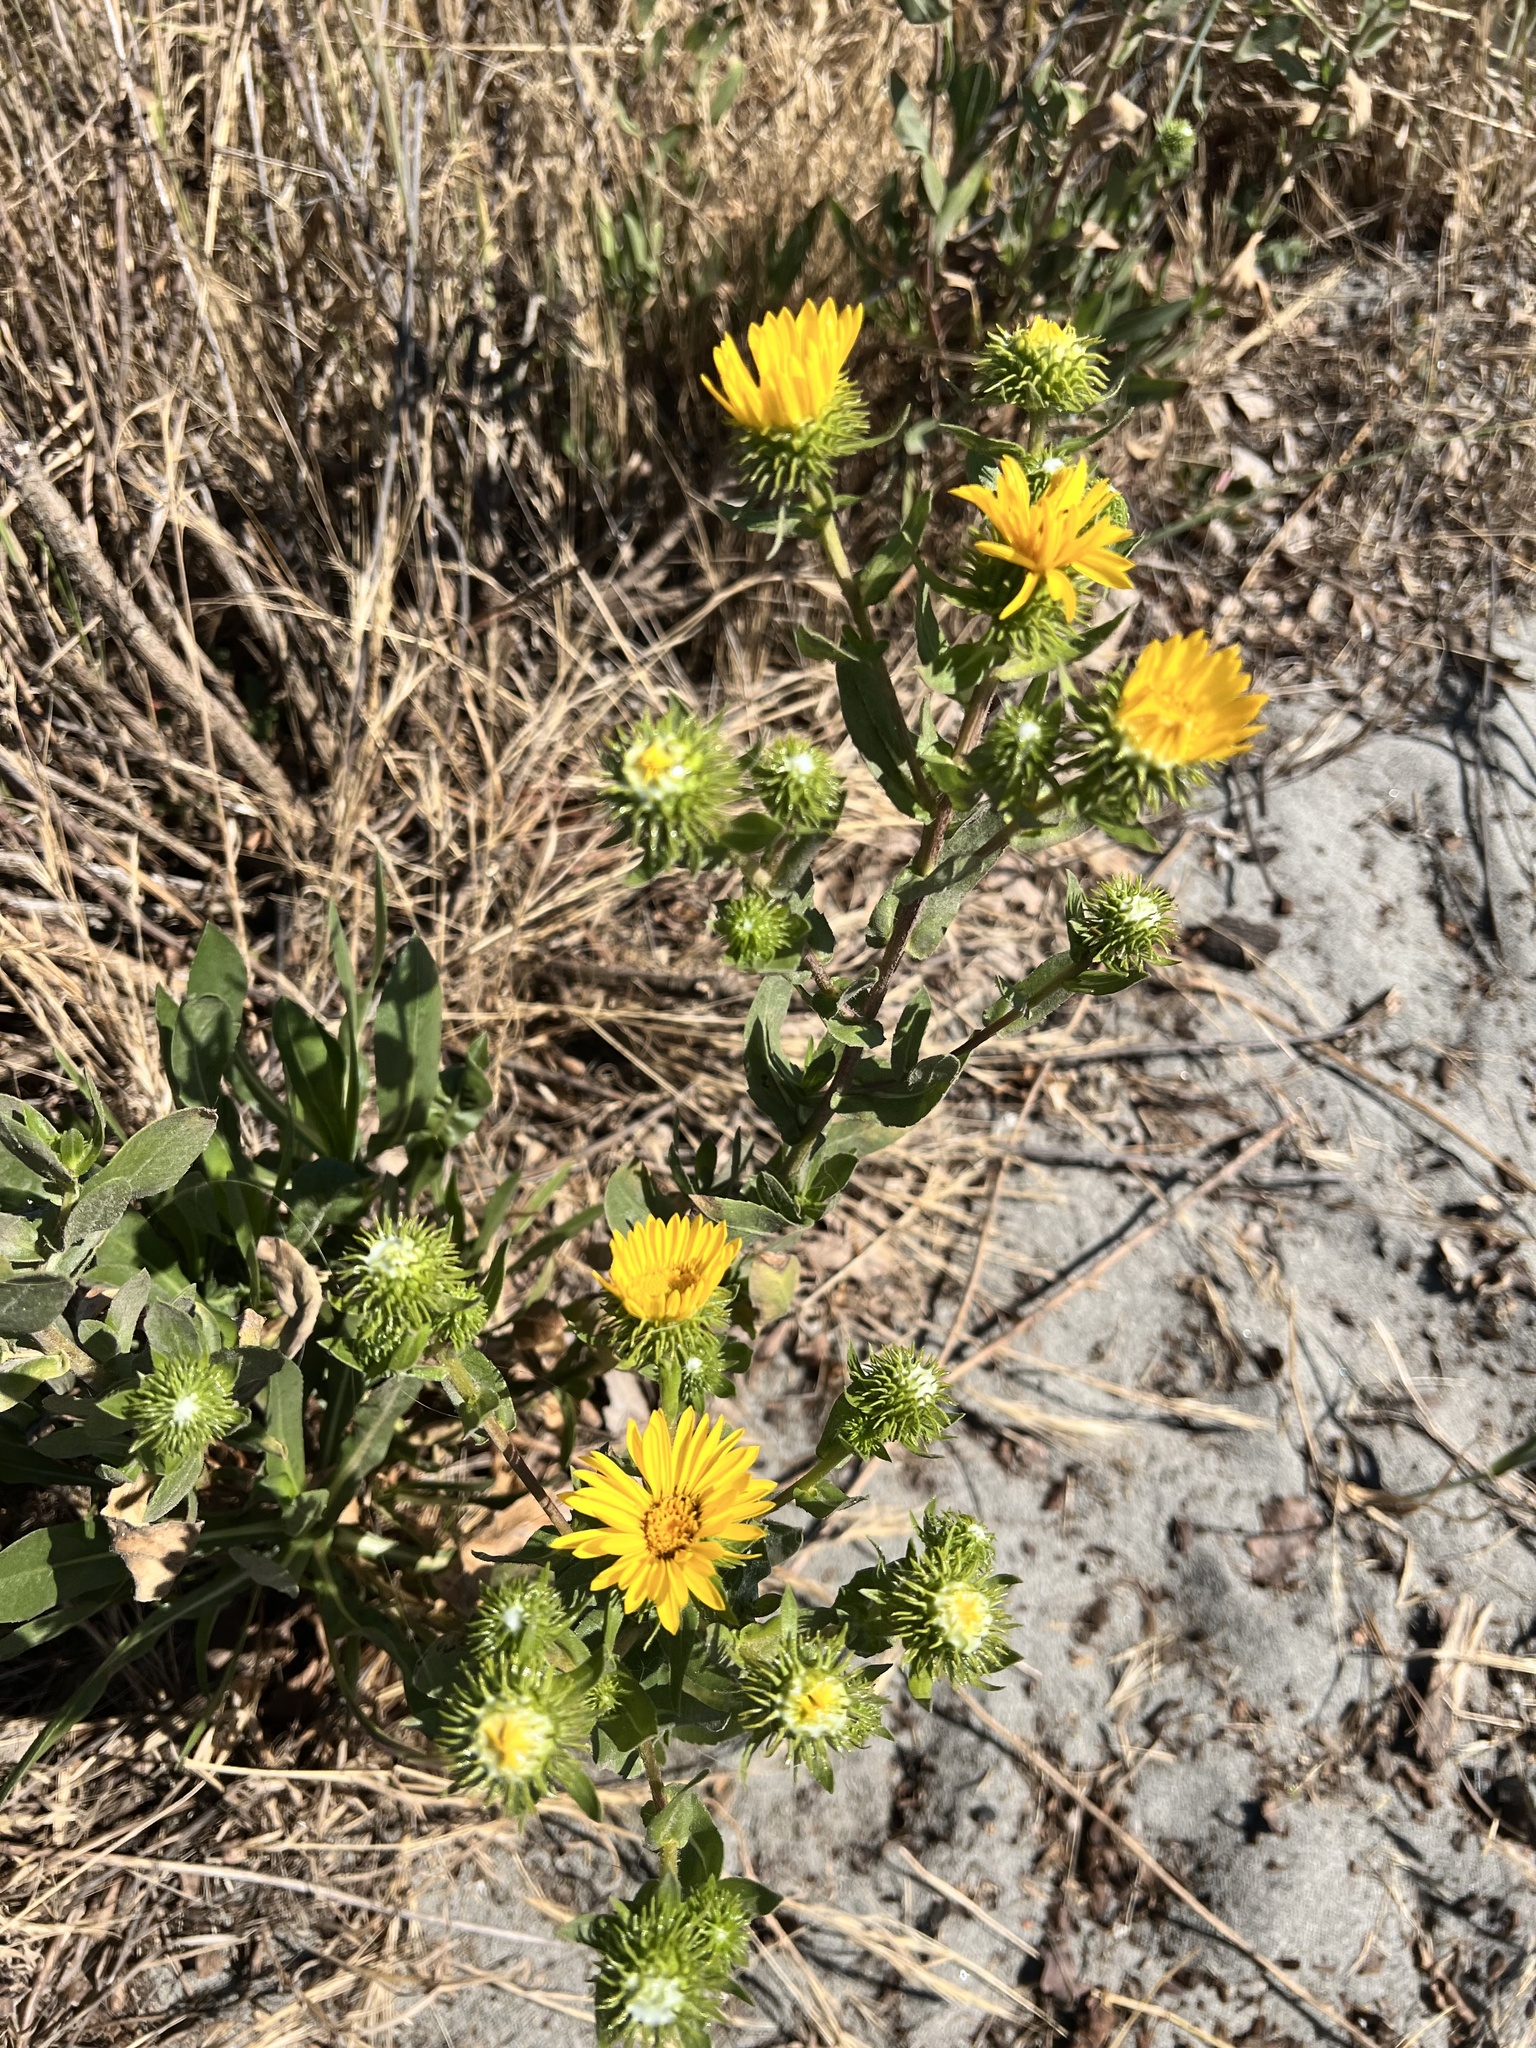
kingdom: Plantae
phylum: Tracheophyta
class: Magnoliopsida
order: Asterales
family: Asteraceae
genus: Grindelia
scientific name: Grindelia integrifolia
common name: Puget sound gumweed
